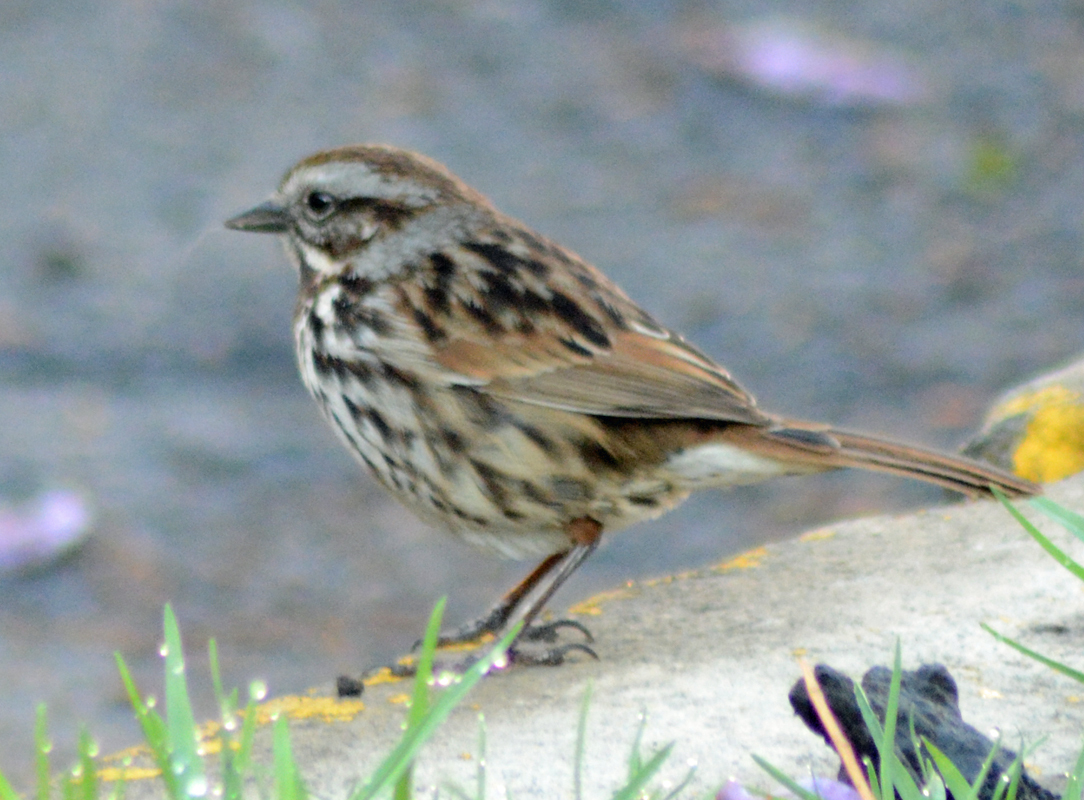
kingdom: Animalia
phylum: Chordata
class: Aves
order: Passeriformes
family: Passerellidae
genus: Melospiza
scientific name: Melospiza melodia
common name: Song sparrow
